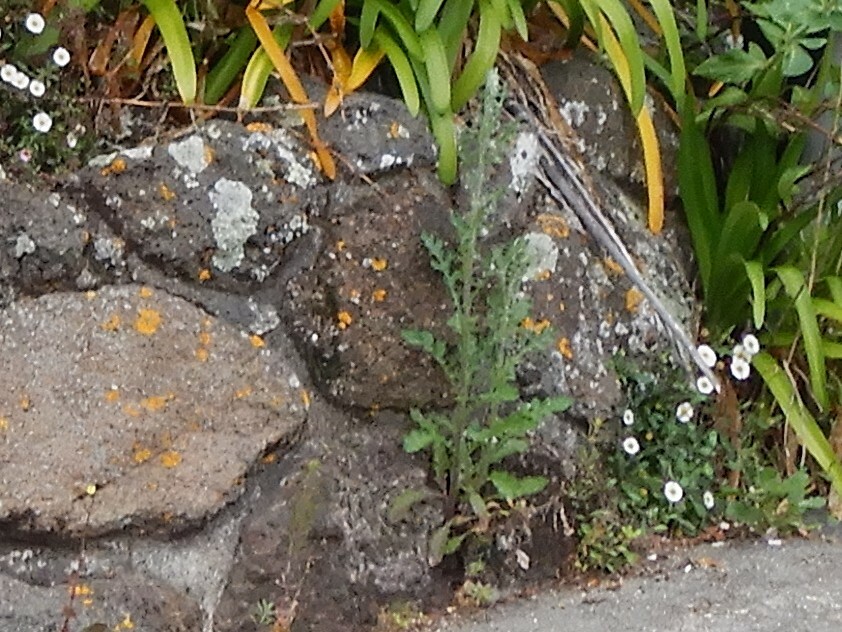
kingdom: Plantae
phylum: Tracheophyta
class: Magnoliopsida
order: Asterales
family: Asteraceae
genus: Senecio
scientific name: Senecio glomeratus
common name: Cutleaf burnweed
